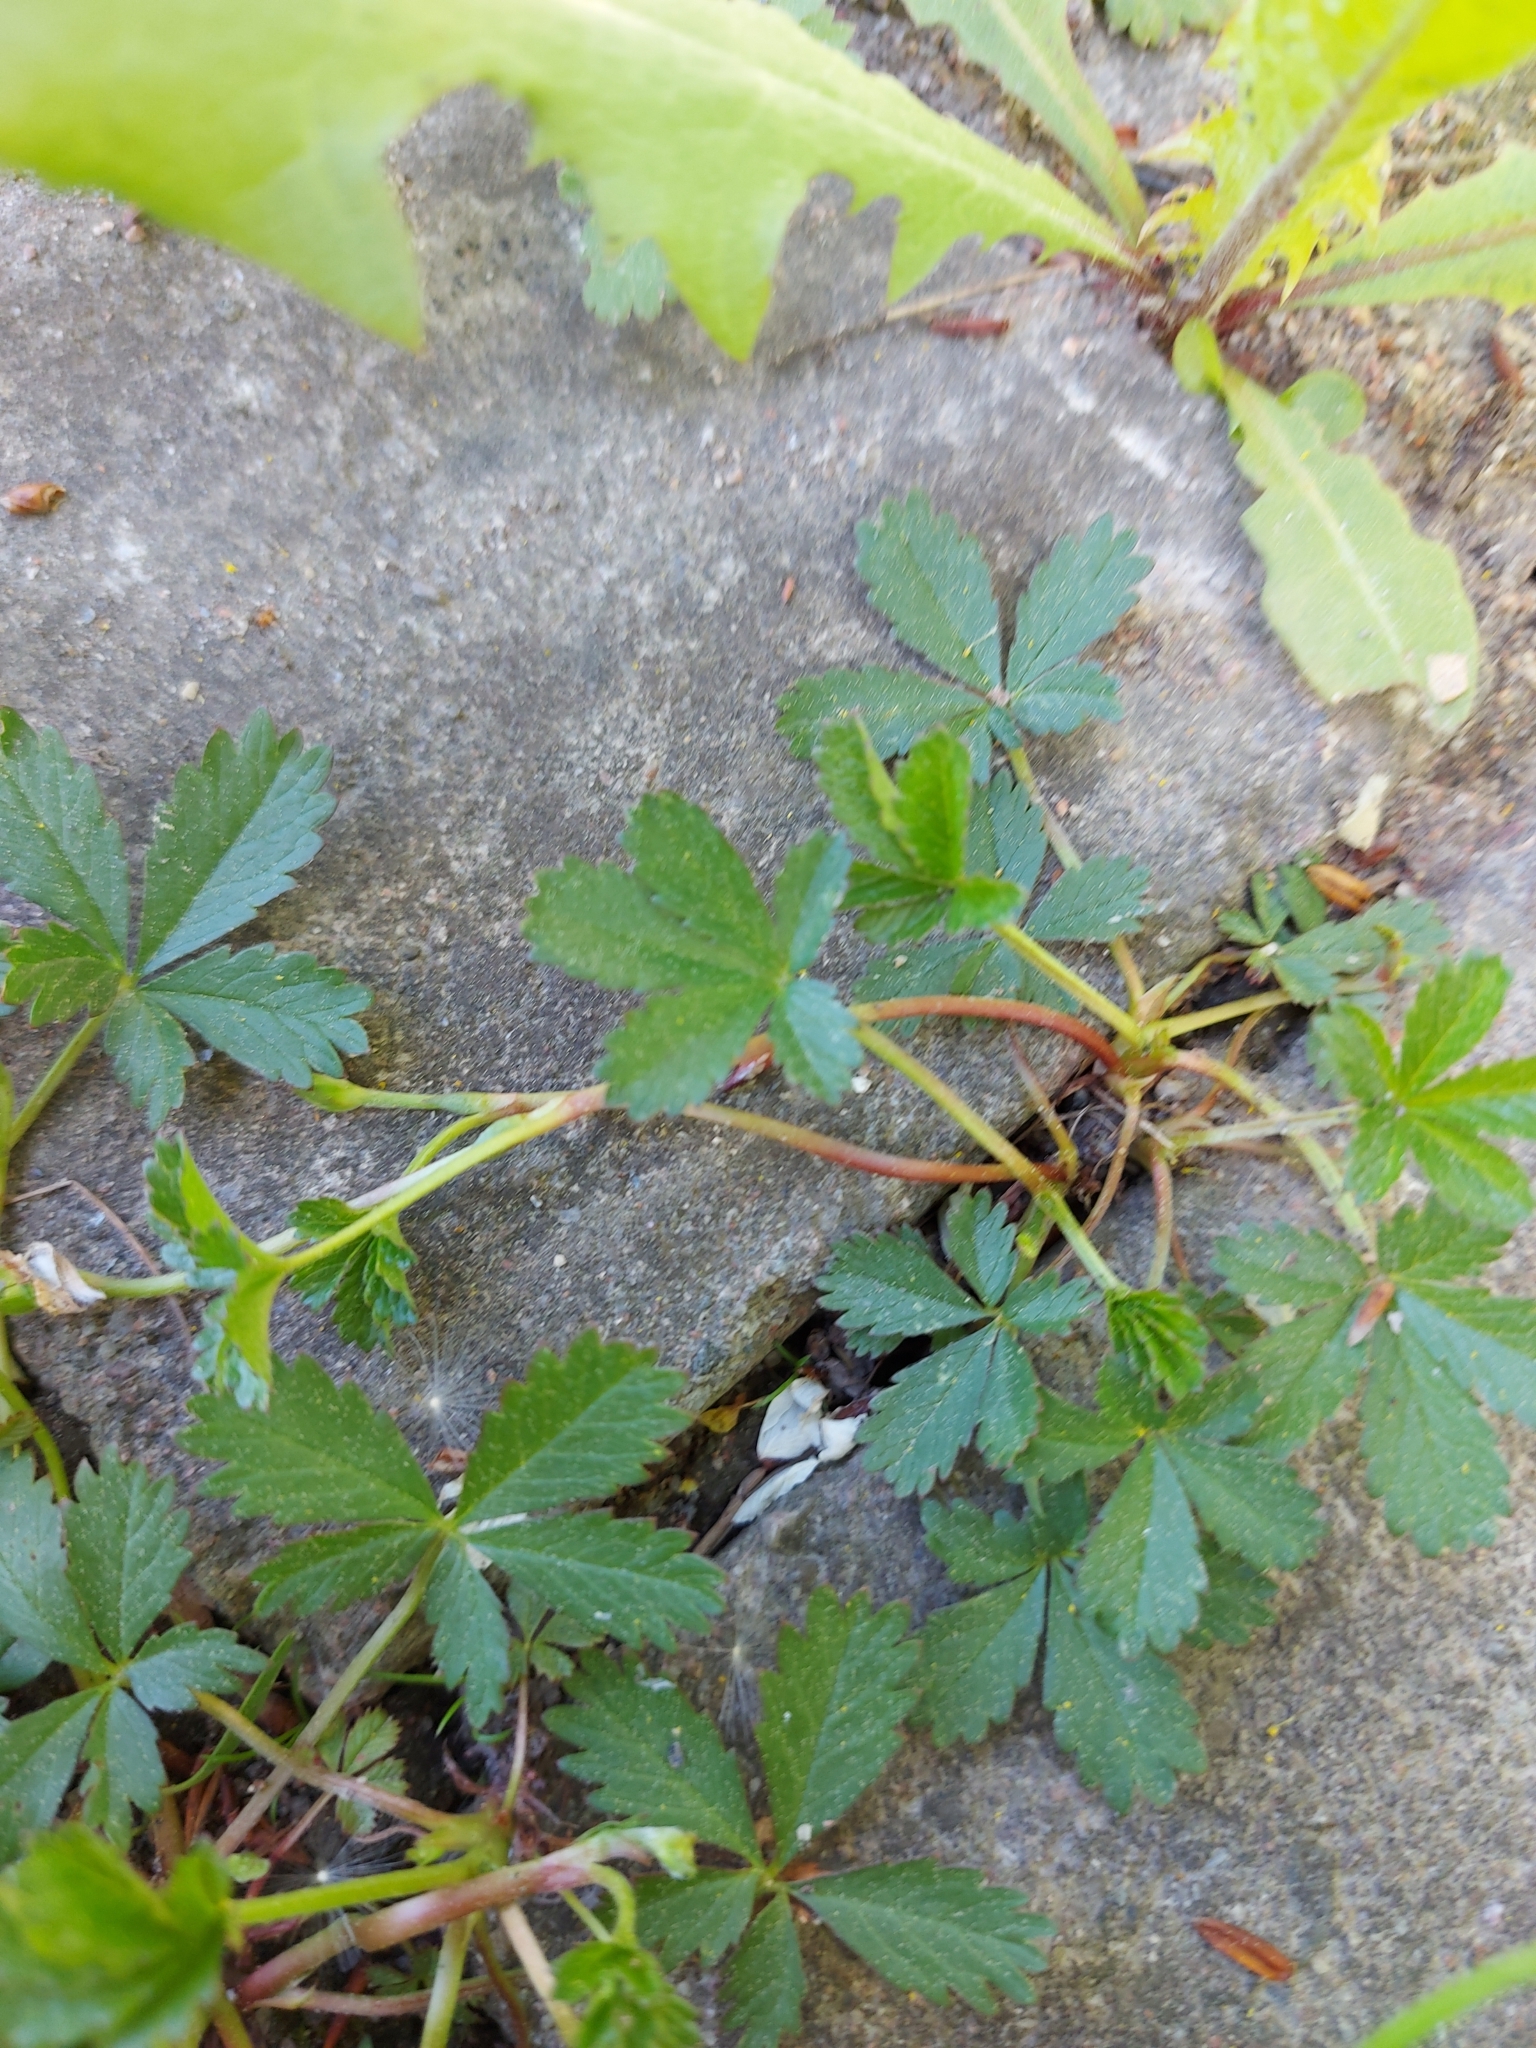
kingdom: Plantae
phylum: Tracheophyta
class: Magnoliopsida
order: Rosales
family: Rosaceae
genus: Potentilla
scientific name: Potentilla reptans
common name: Creeping cinquefoil
